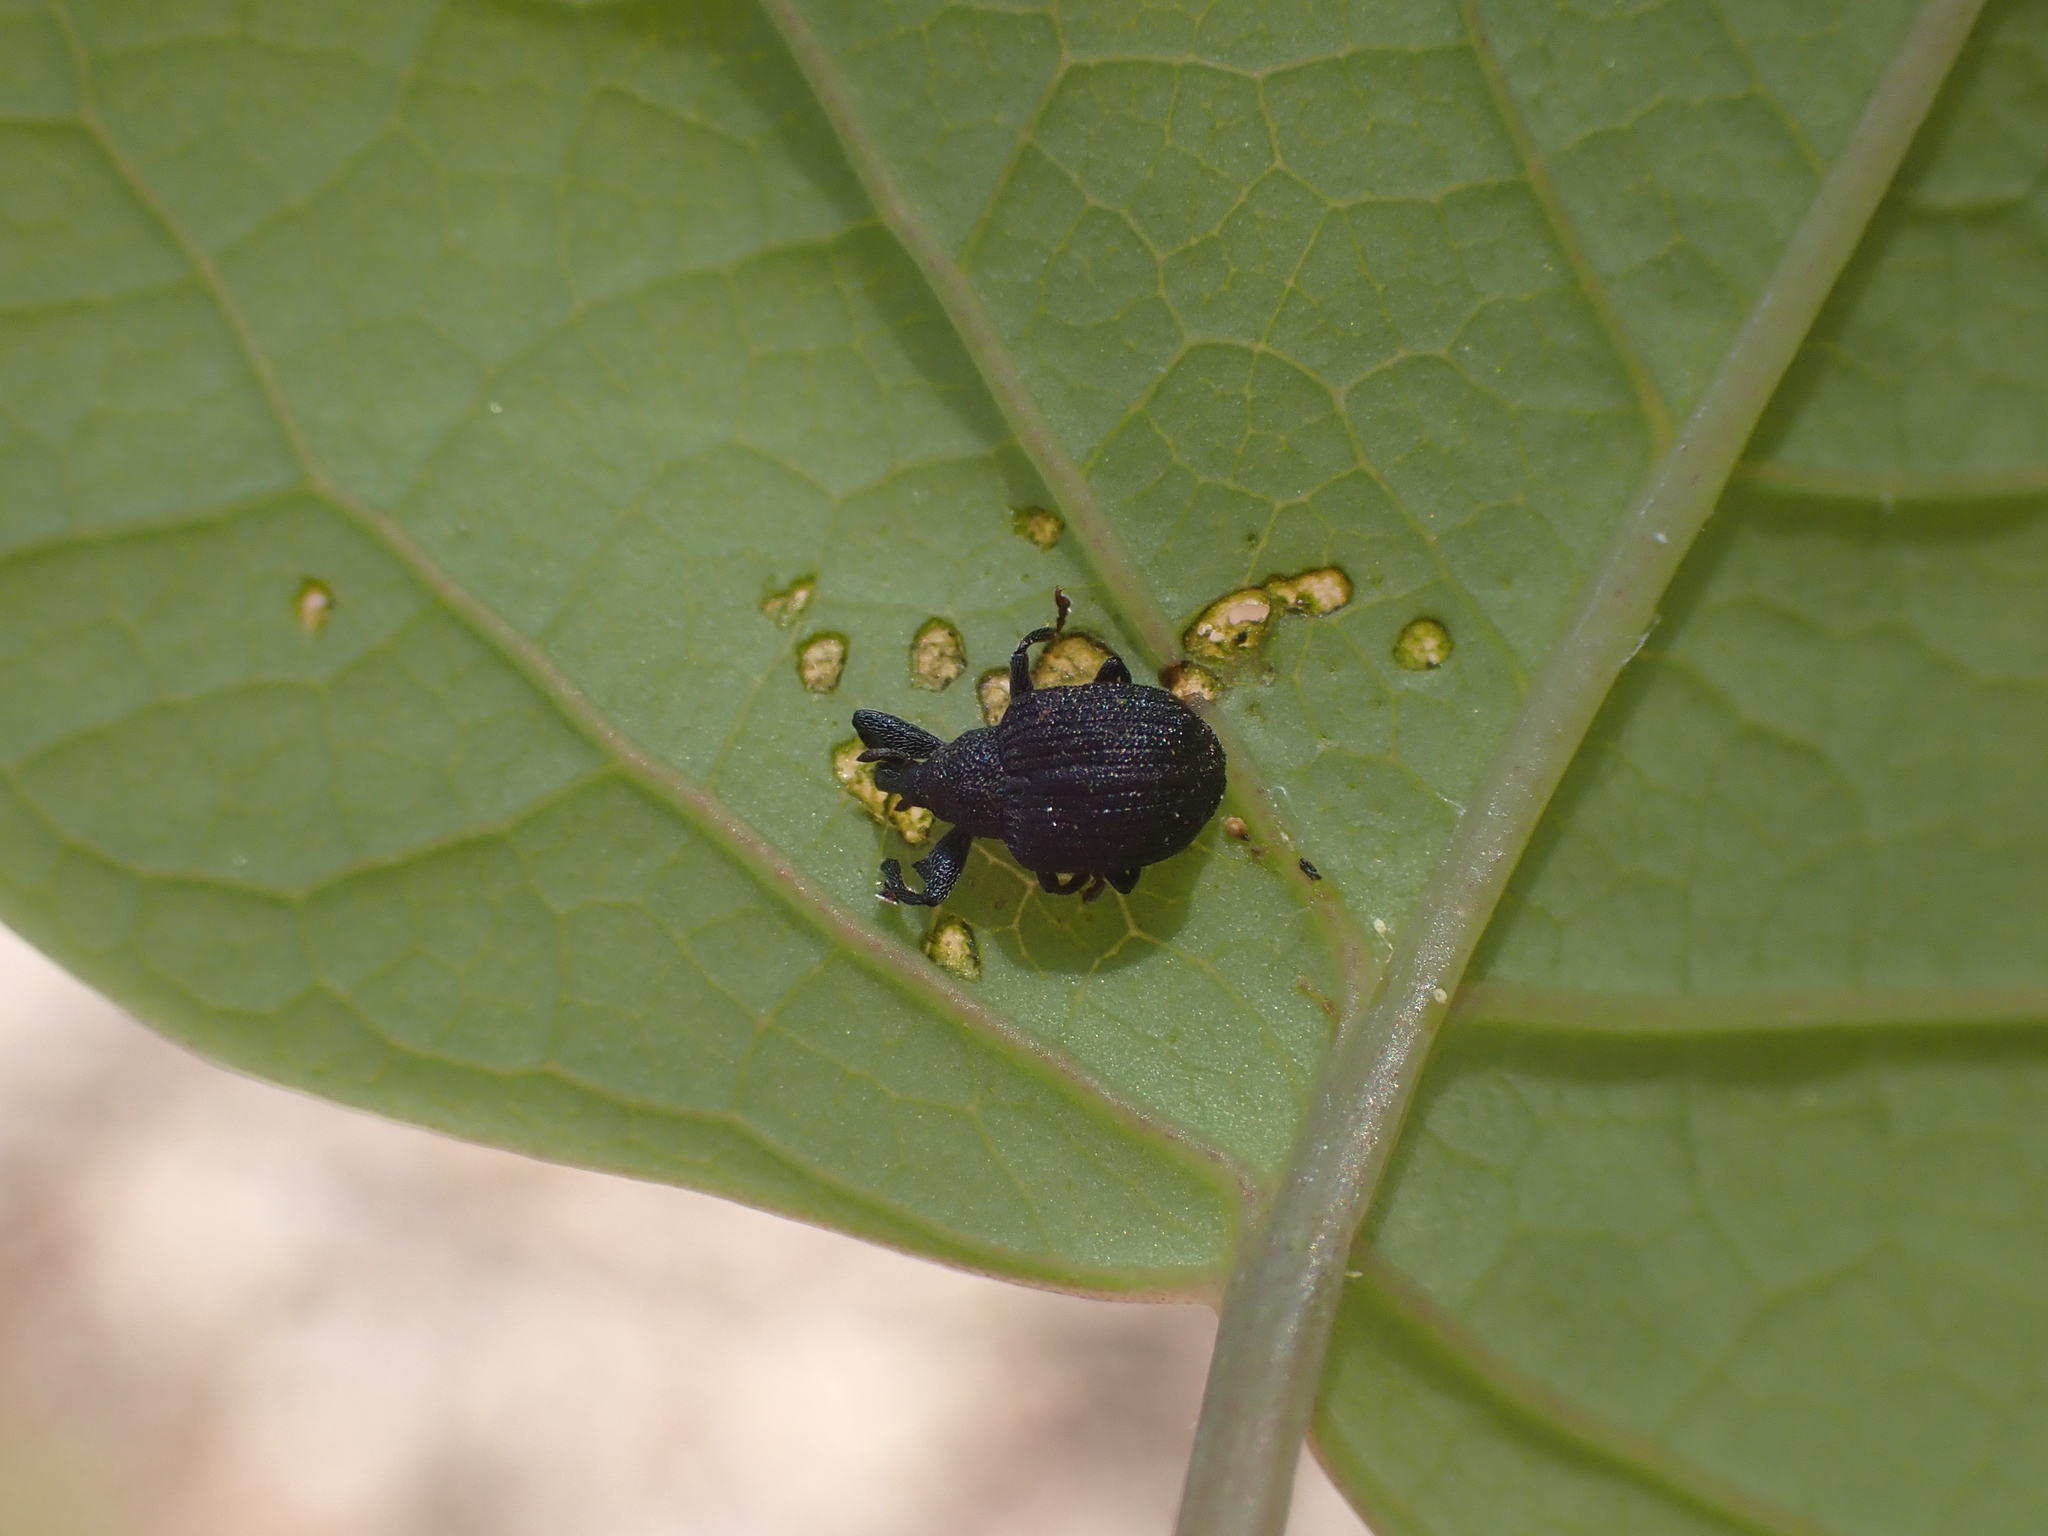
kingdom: Animalia
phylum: Arthropoda
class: Insecta
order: Coleoptera
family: Curculionidae
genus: Odontopus
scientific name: Odontopus calceatus
